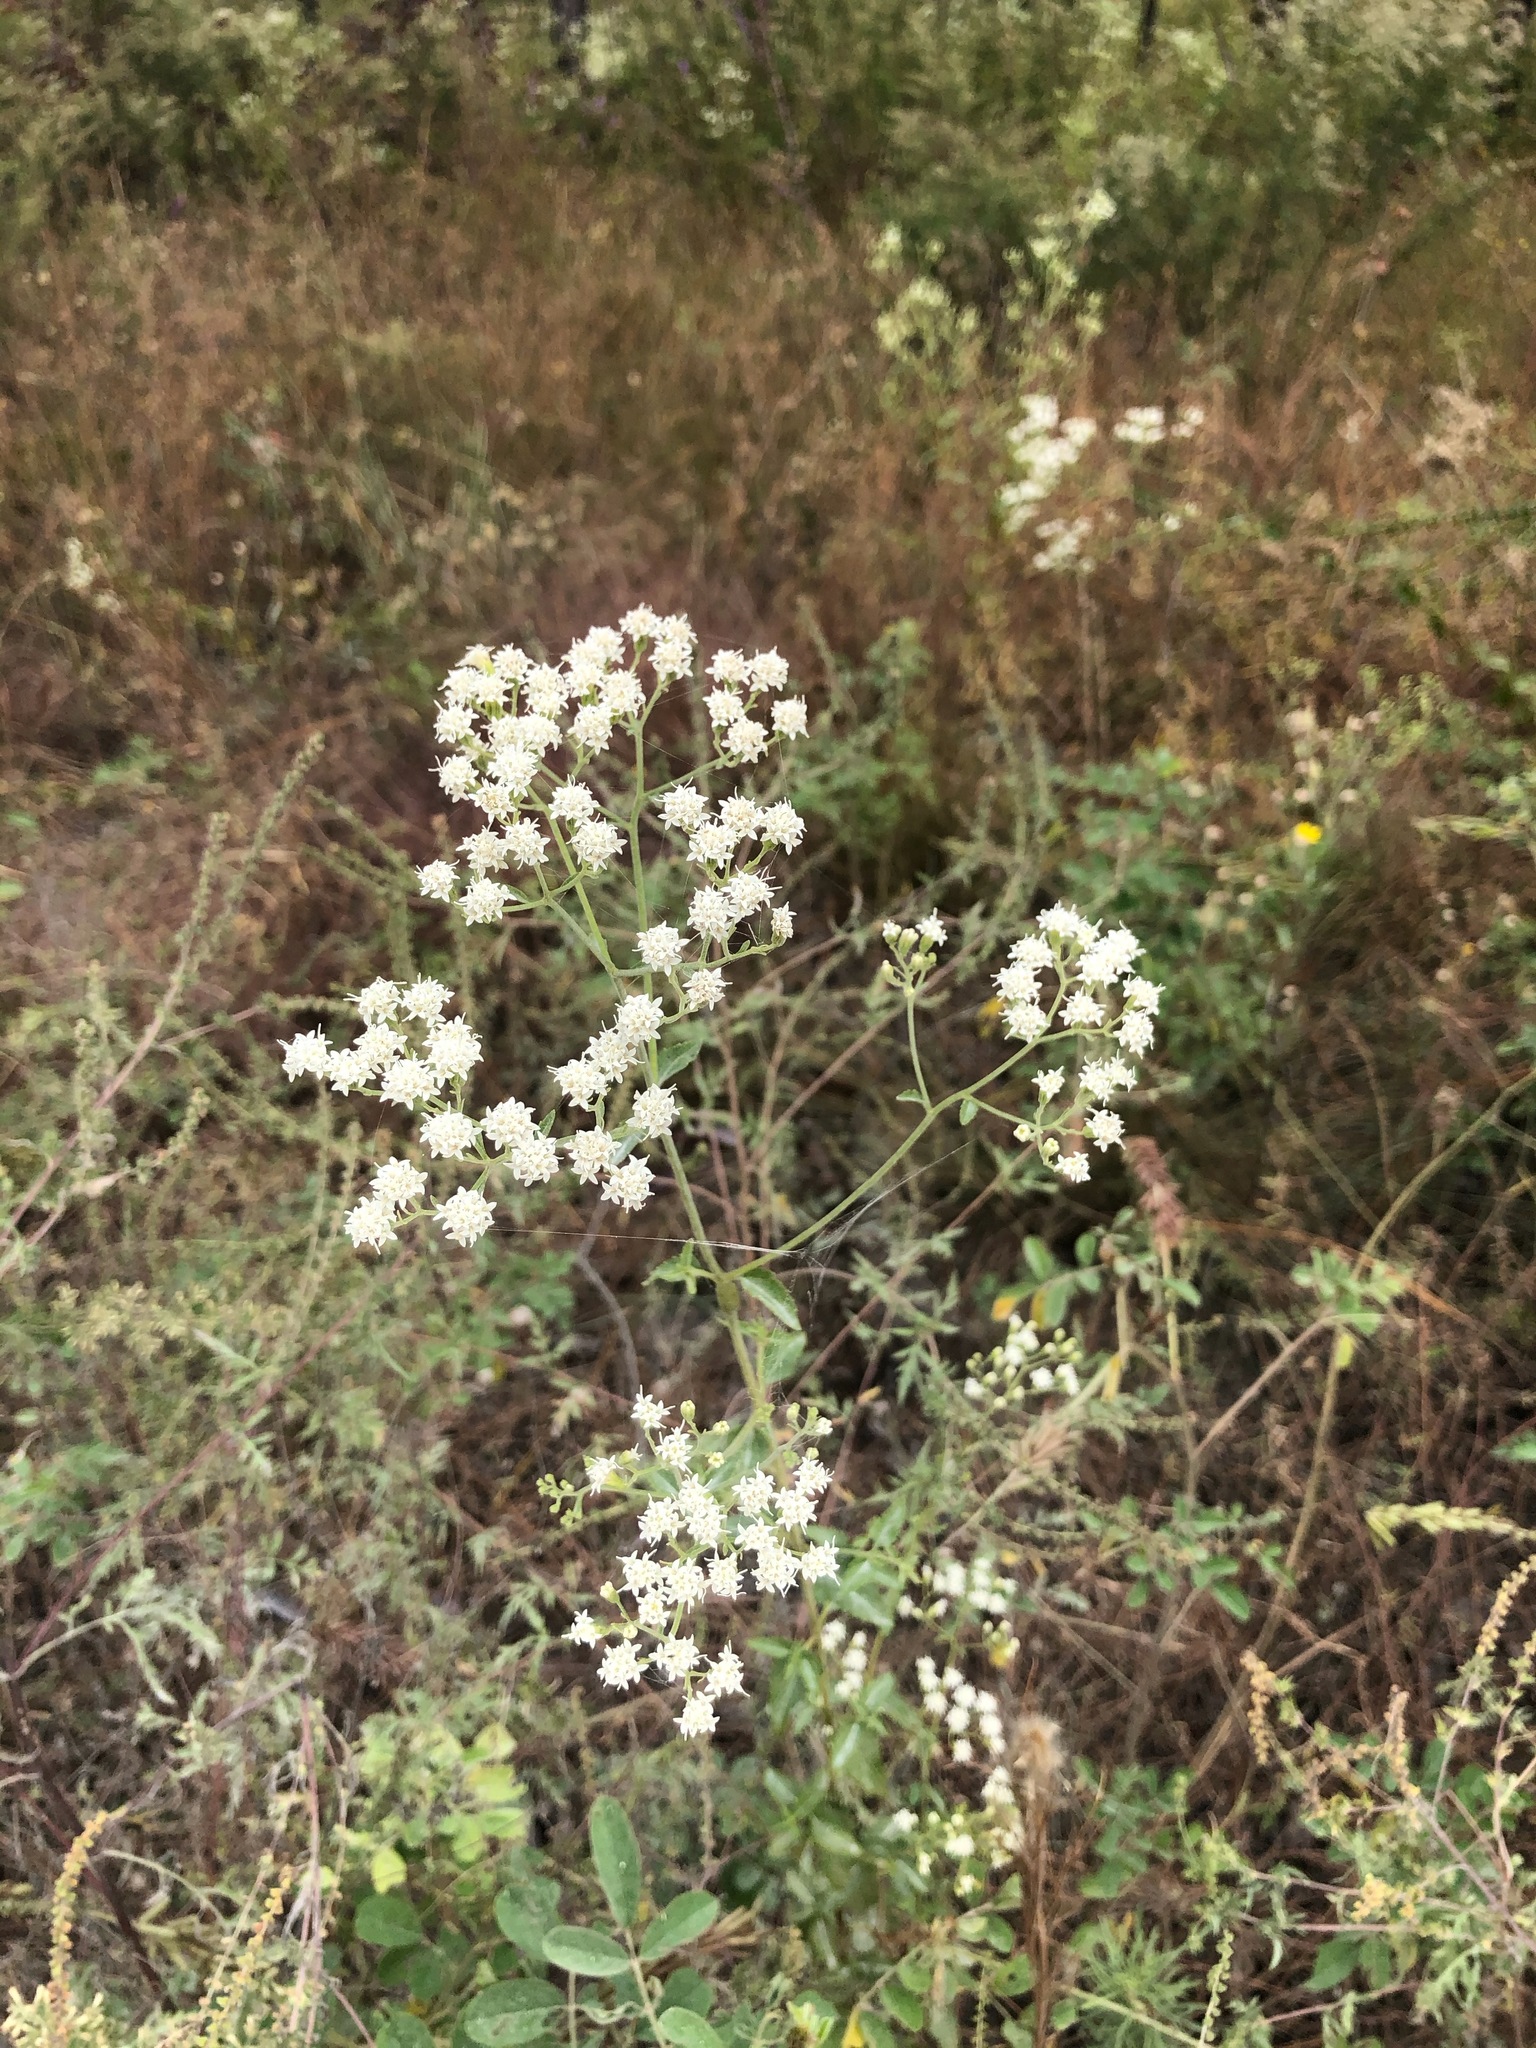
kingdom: Plantae
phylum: Tracheophyta
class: Magnoliopsida
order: Asterales
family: Asteraceae
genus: Ageratina
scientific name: Ageratina jucunda
